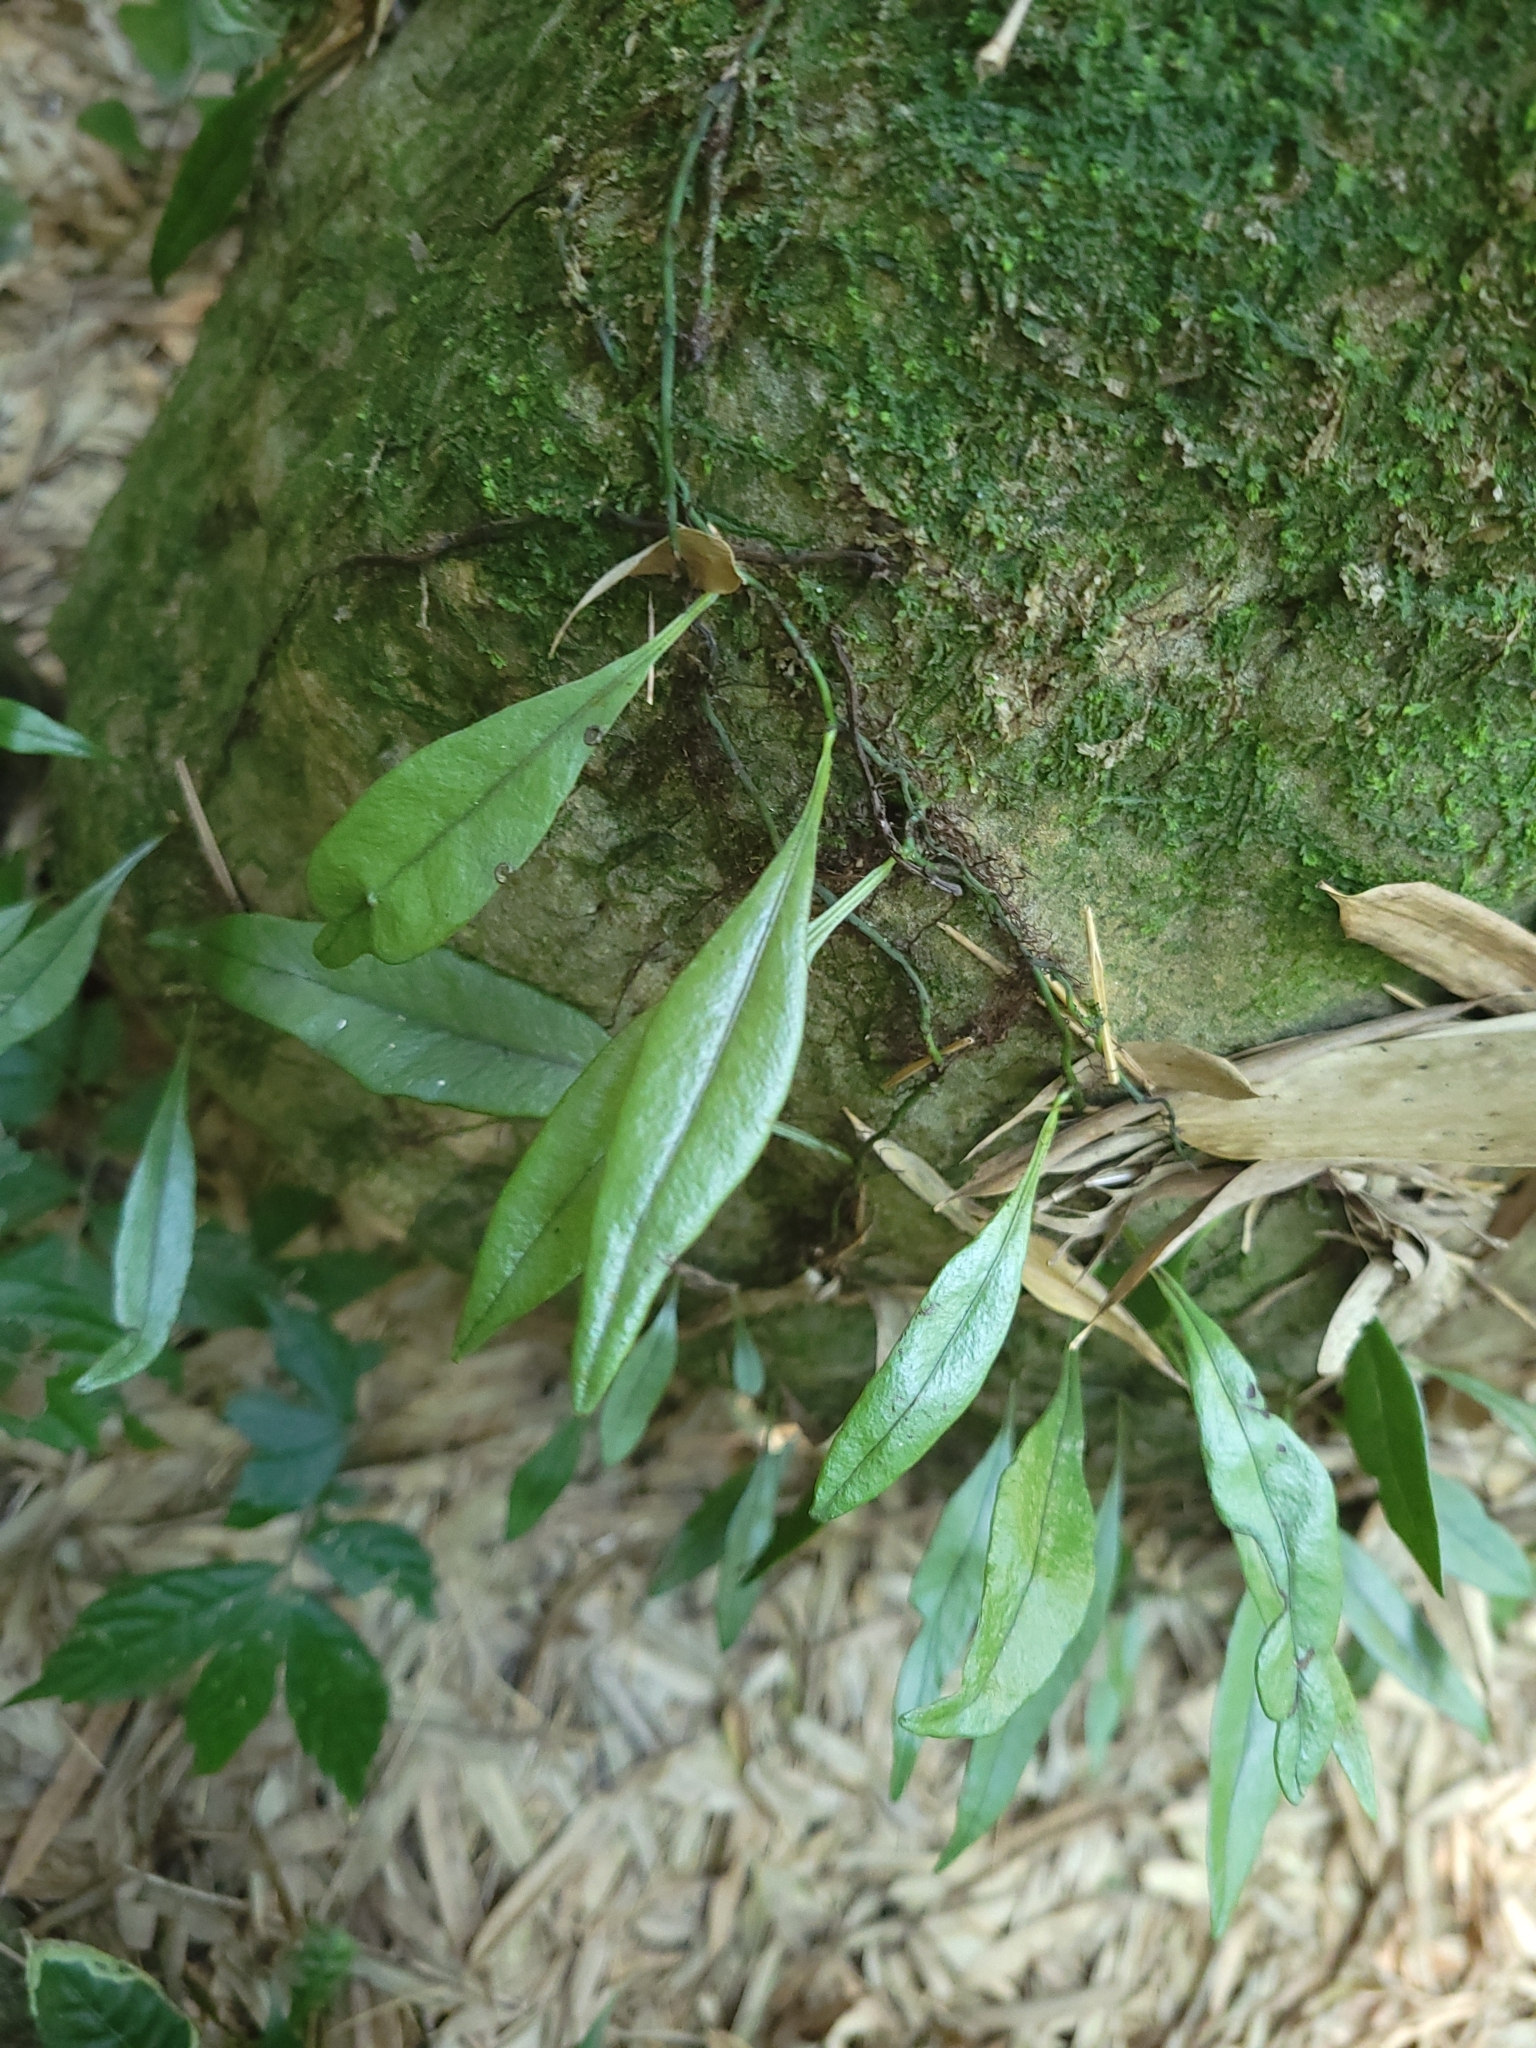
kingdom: Plantae
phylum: Tracheophyta
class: Polypodiopsida
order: Polypodiales
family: Polypodiaceae
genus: Lepisorus
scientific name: Lepisorus rostratus
